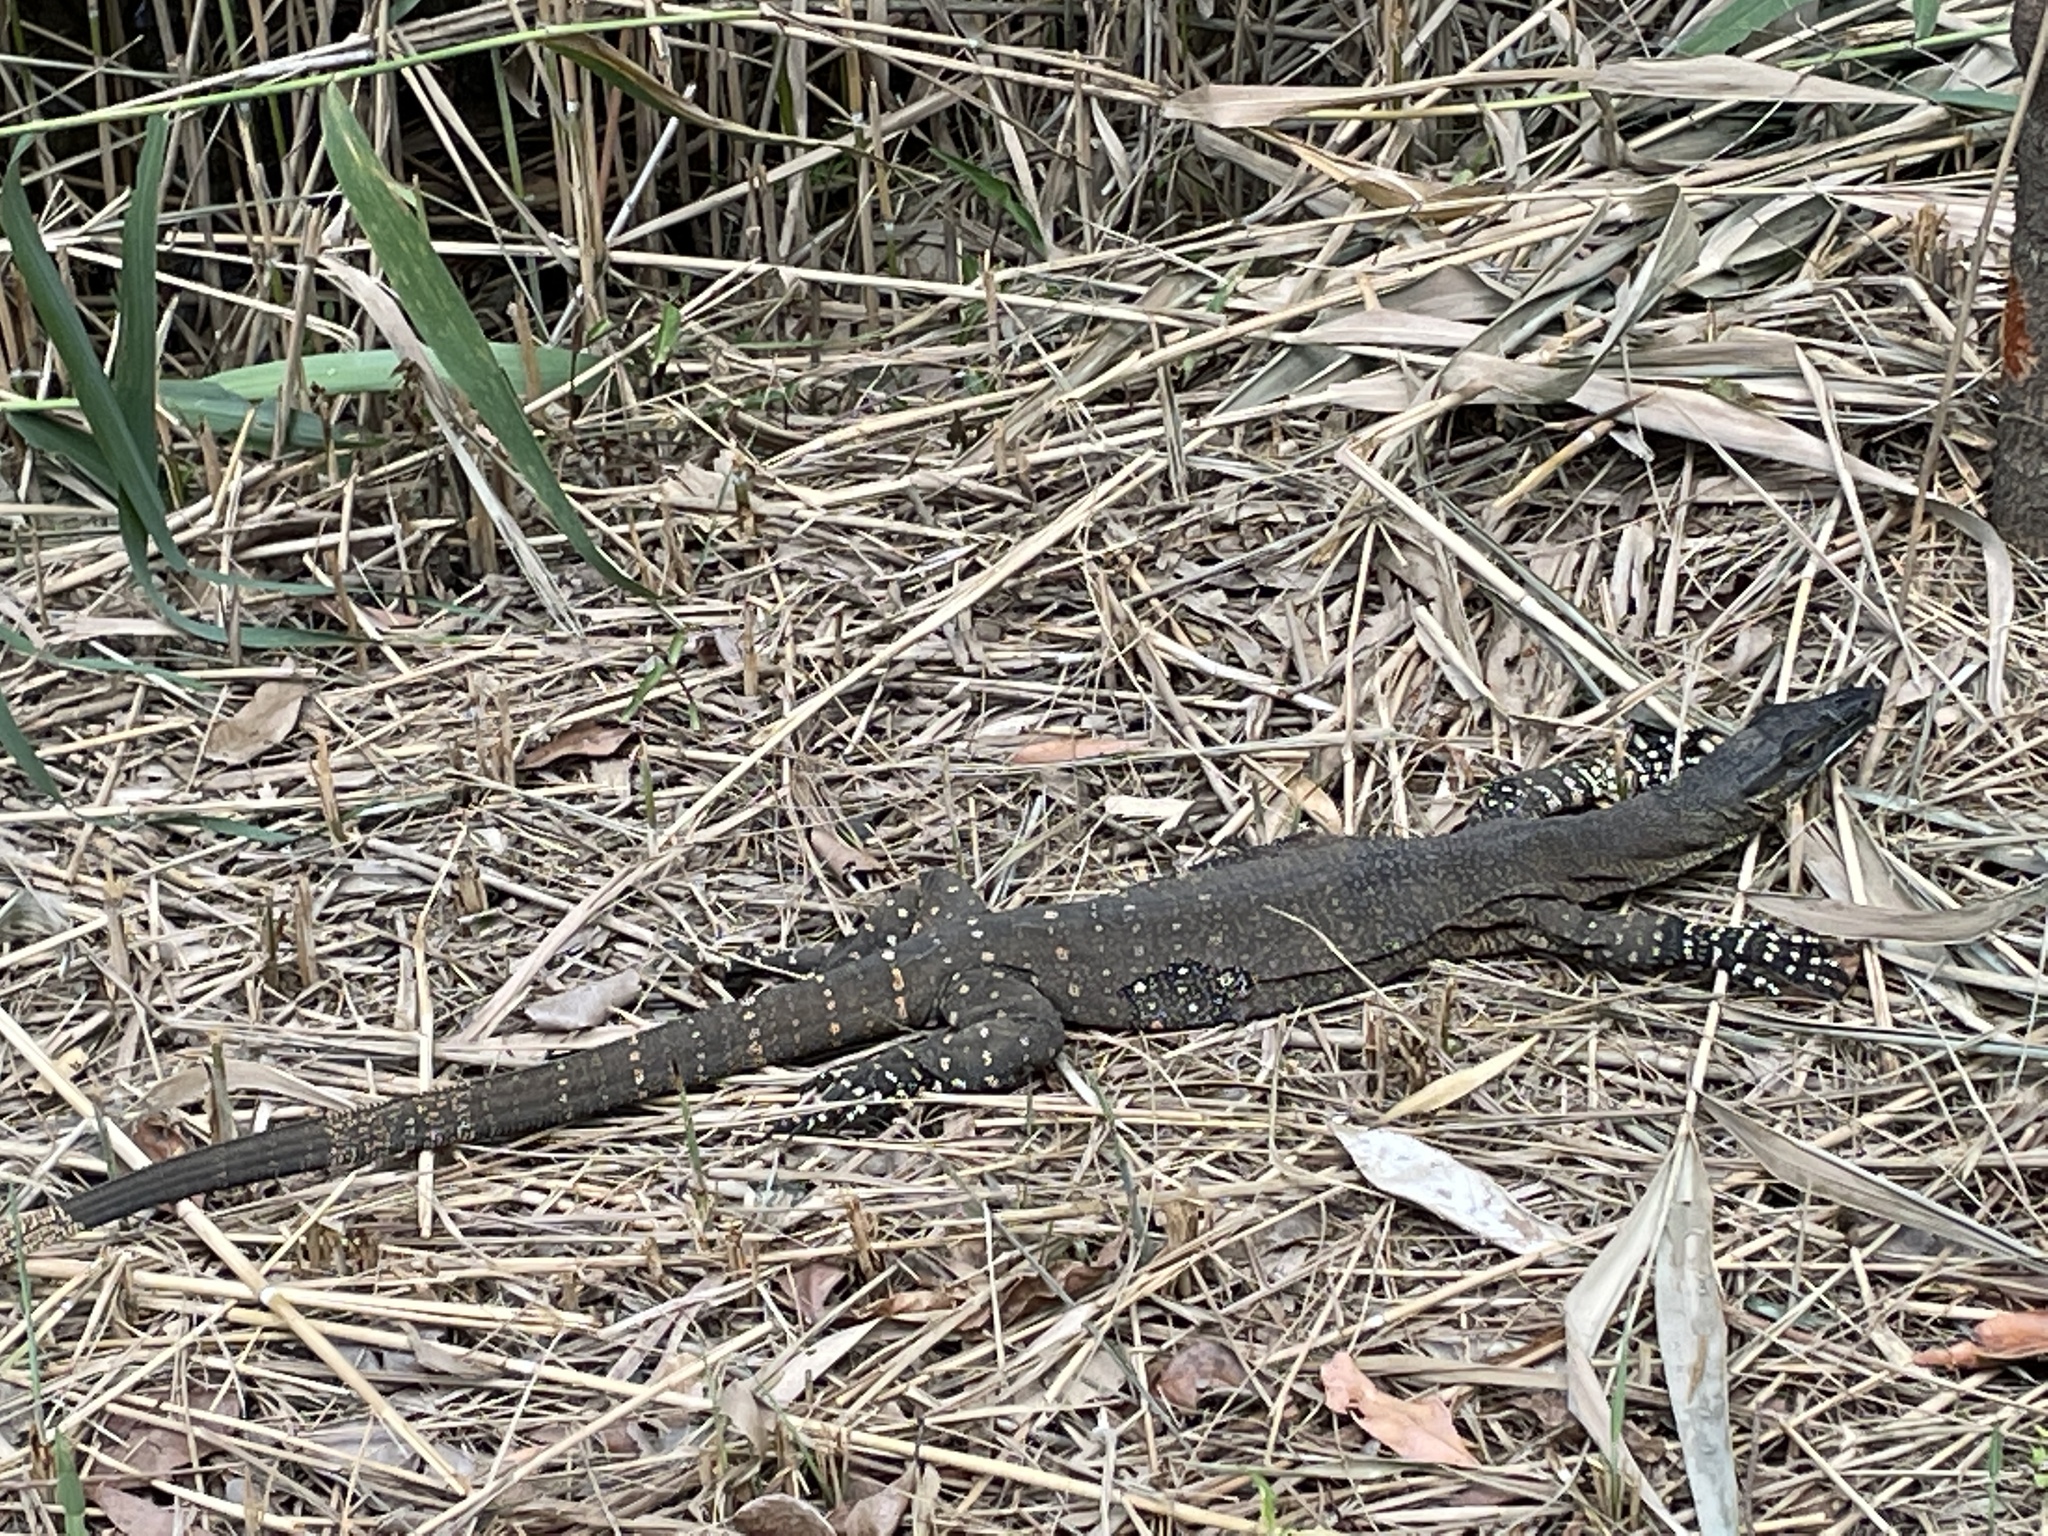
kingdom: Animalia
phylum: Chordata
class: Squamata
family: Varanidae
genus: Varanus
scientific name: Varanus varius
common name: Lace monitor
